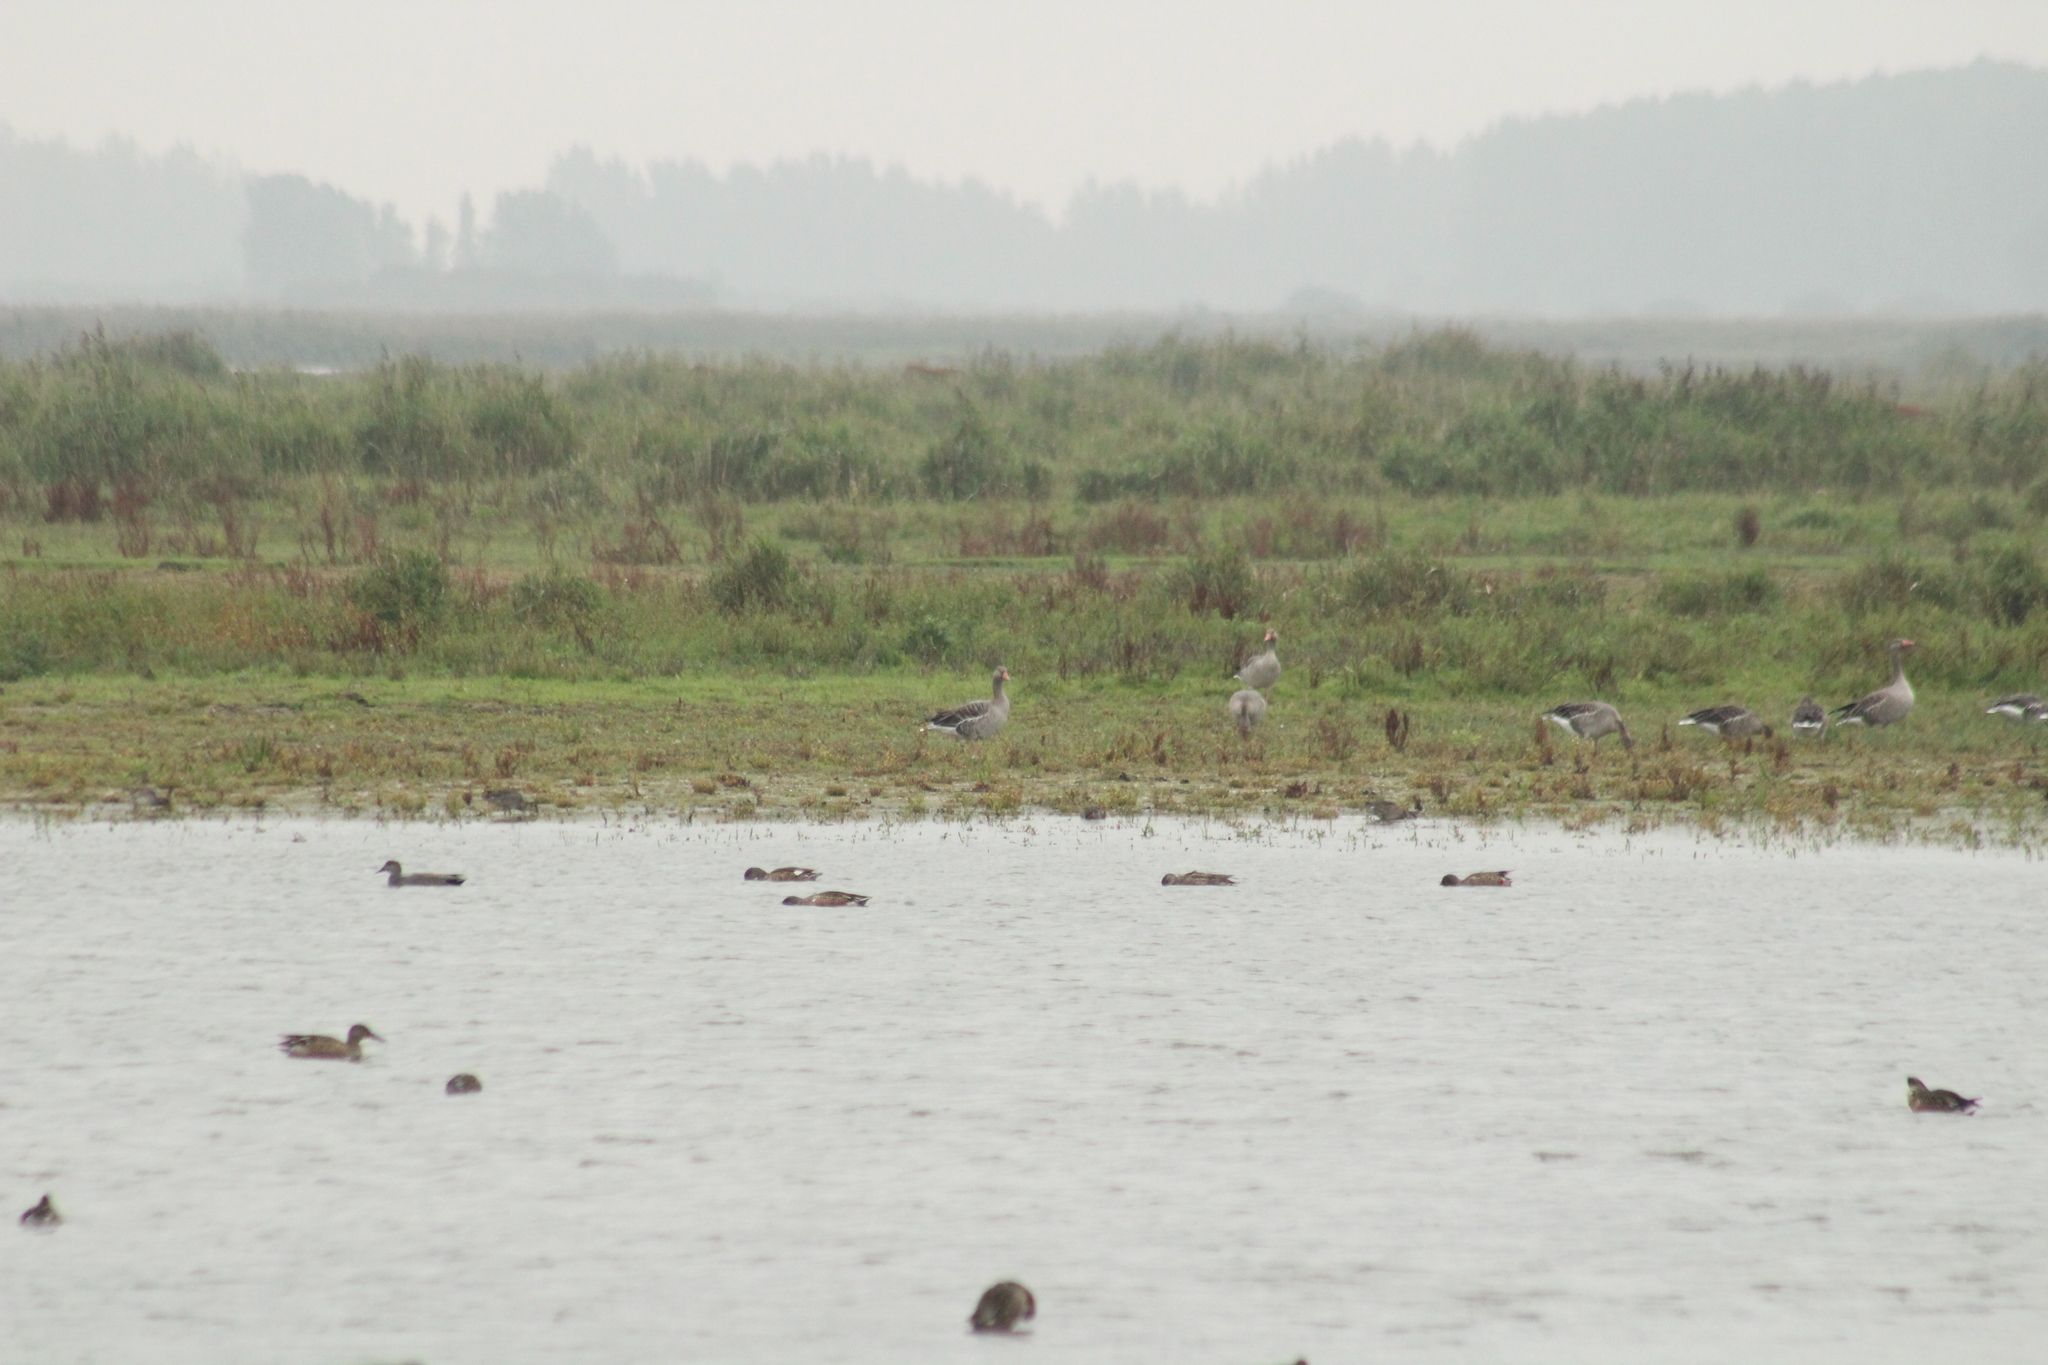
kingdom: Animalia
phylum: Chordata
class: Aves
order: Anseriformes
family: Anatidae
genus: Anser
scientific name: Anser anser
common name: Greylag goose
